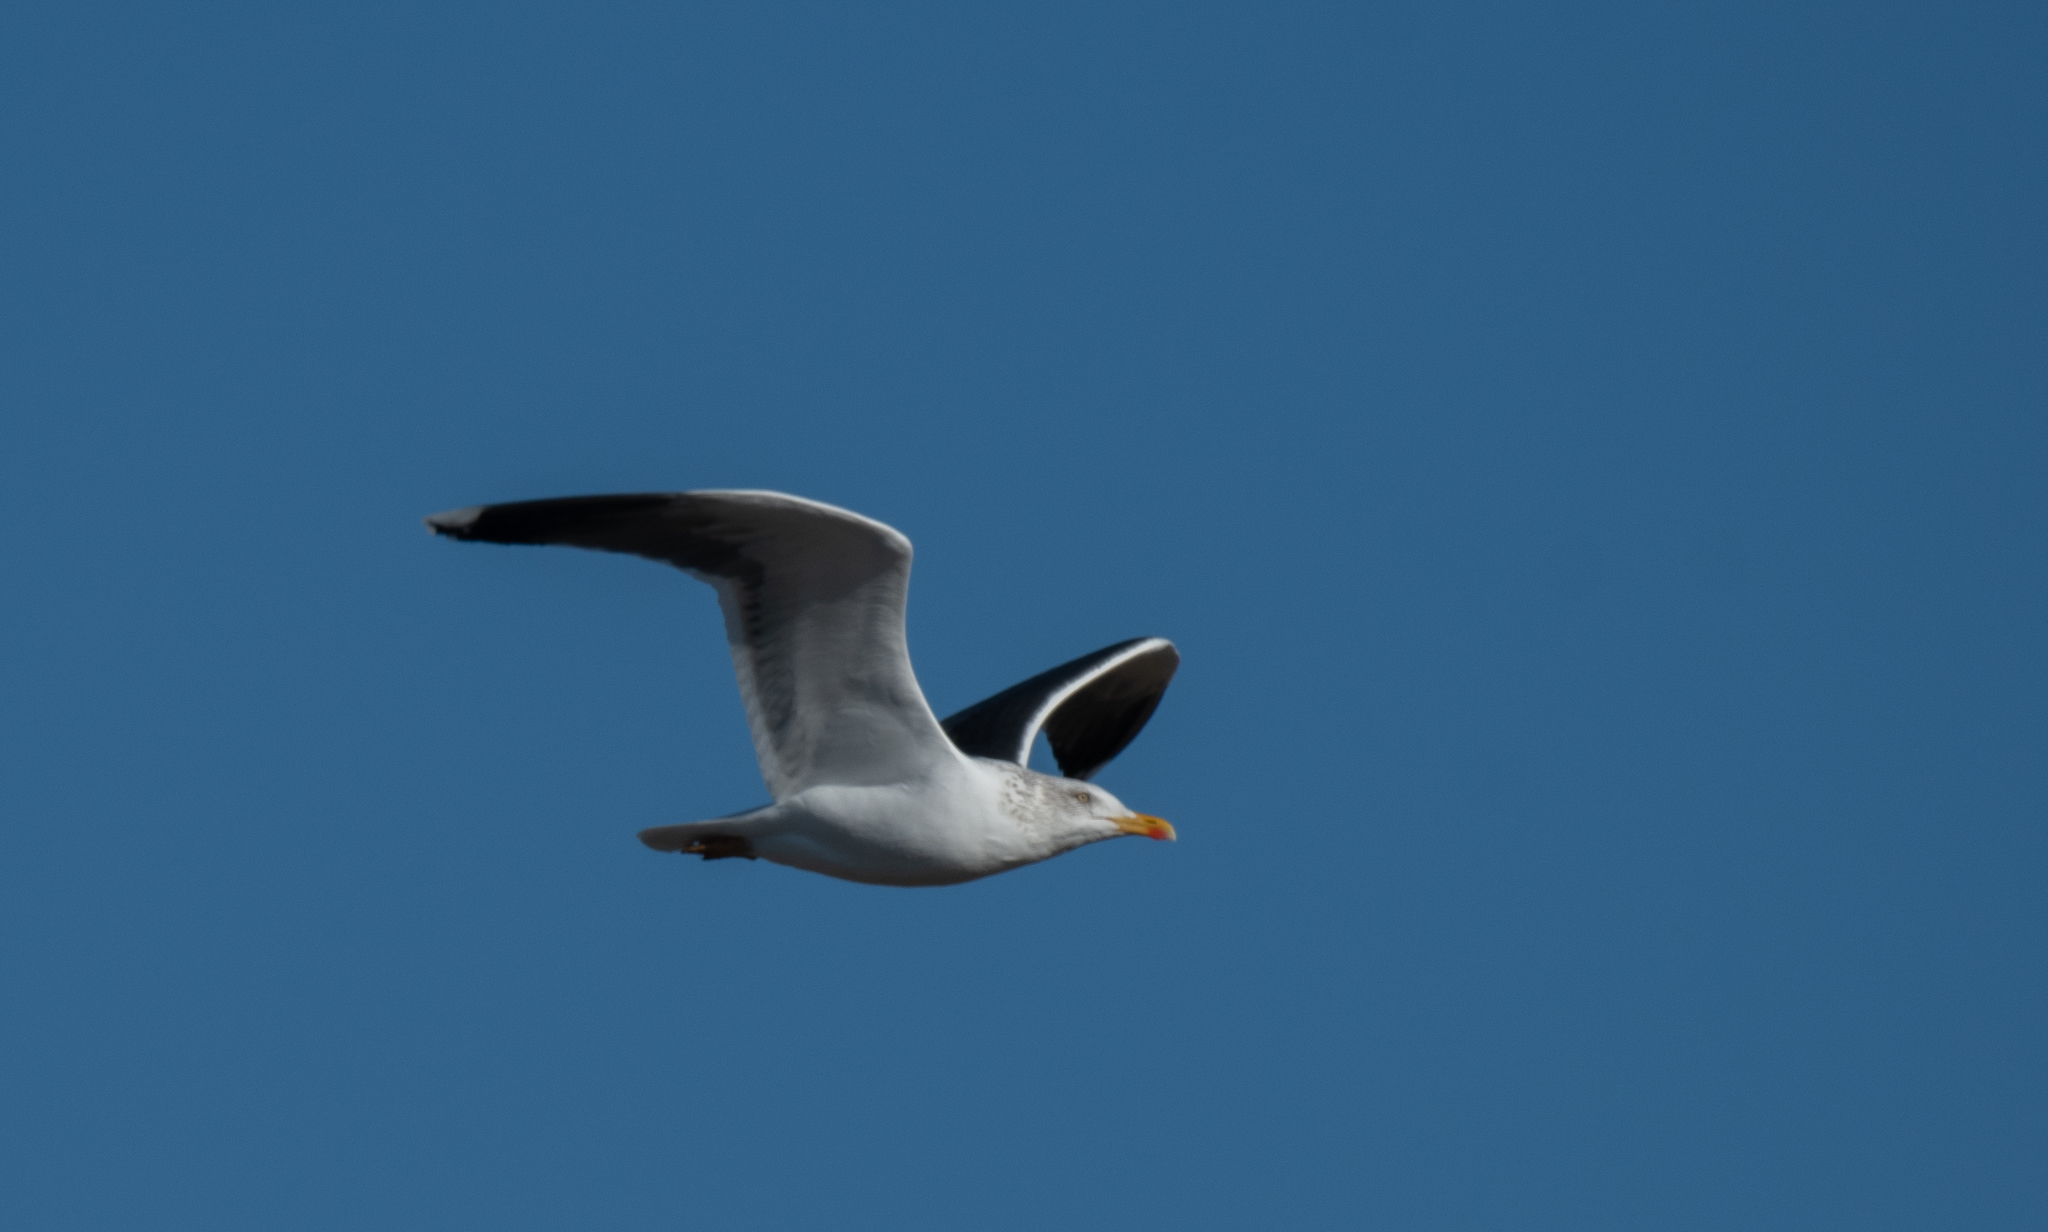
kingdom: Animalia
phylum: Chordata
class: Aves
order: Charadriiformes
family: Laridae
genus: Larus
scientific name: Larus fuscus
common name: Lesser black-backed gull
